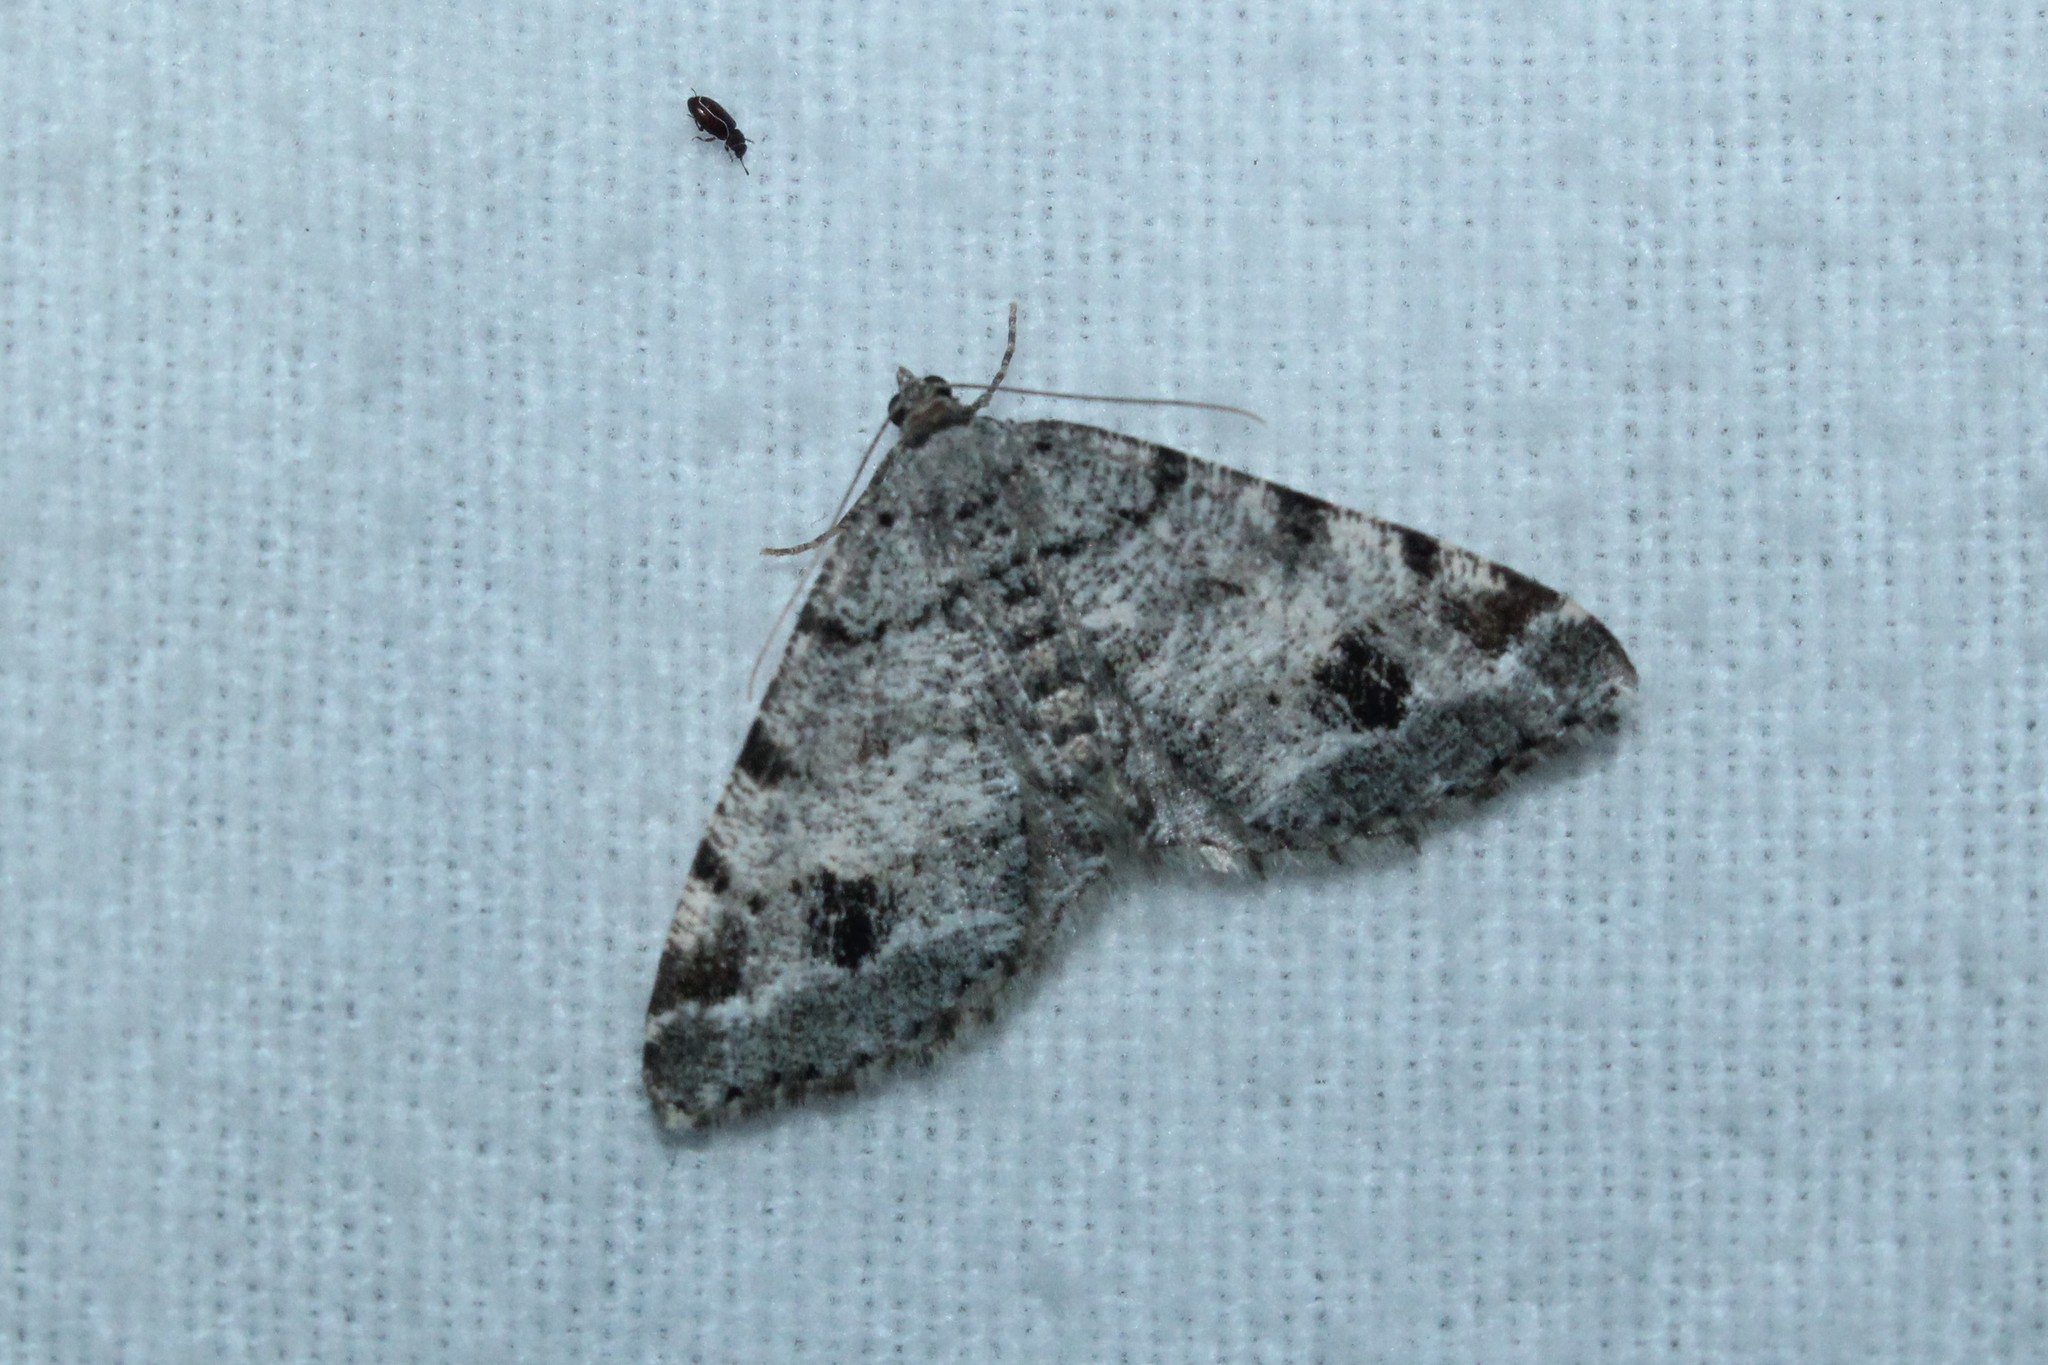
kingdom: Animalia
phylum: Arthropoda
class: Insecta
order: Lepidoptera
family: Geometridae
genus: Macaria
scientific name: Macaria pinistrobata
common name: White pine angle
